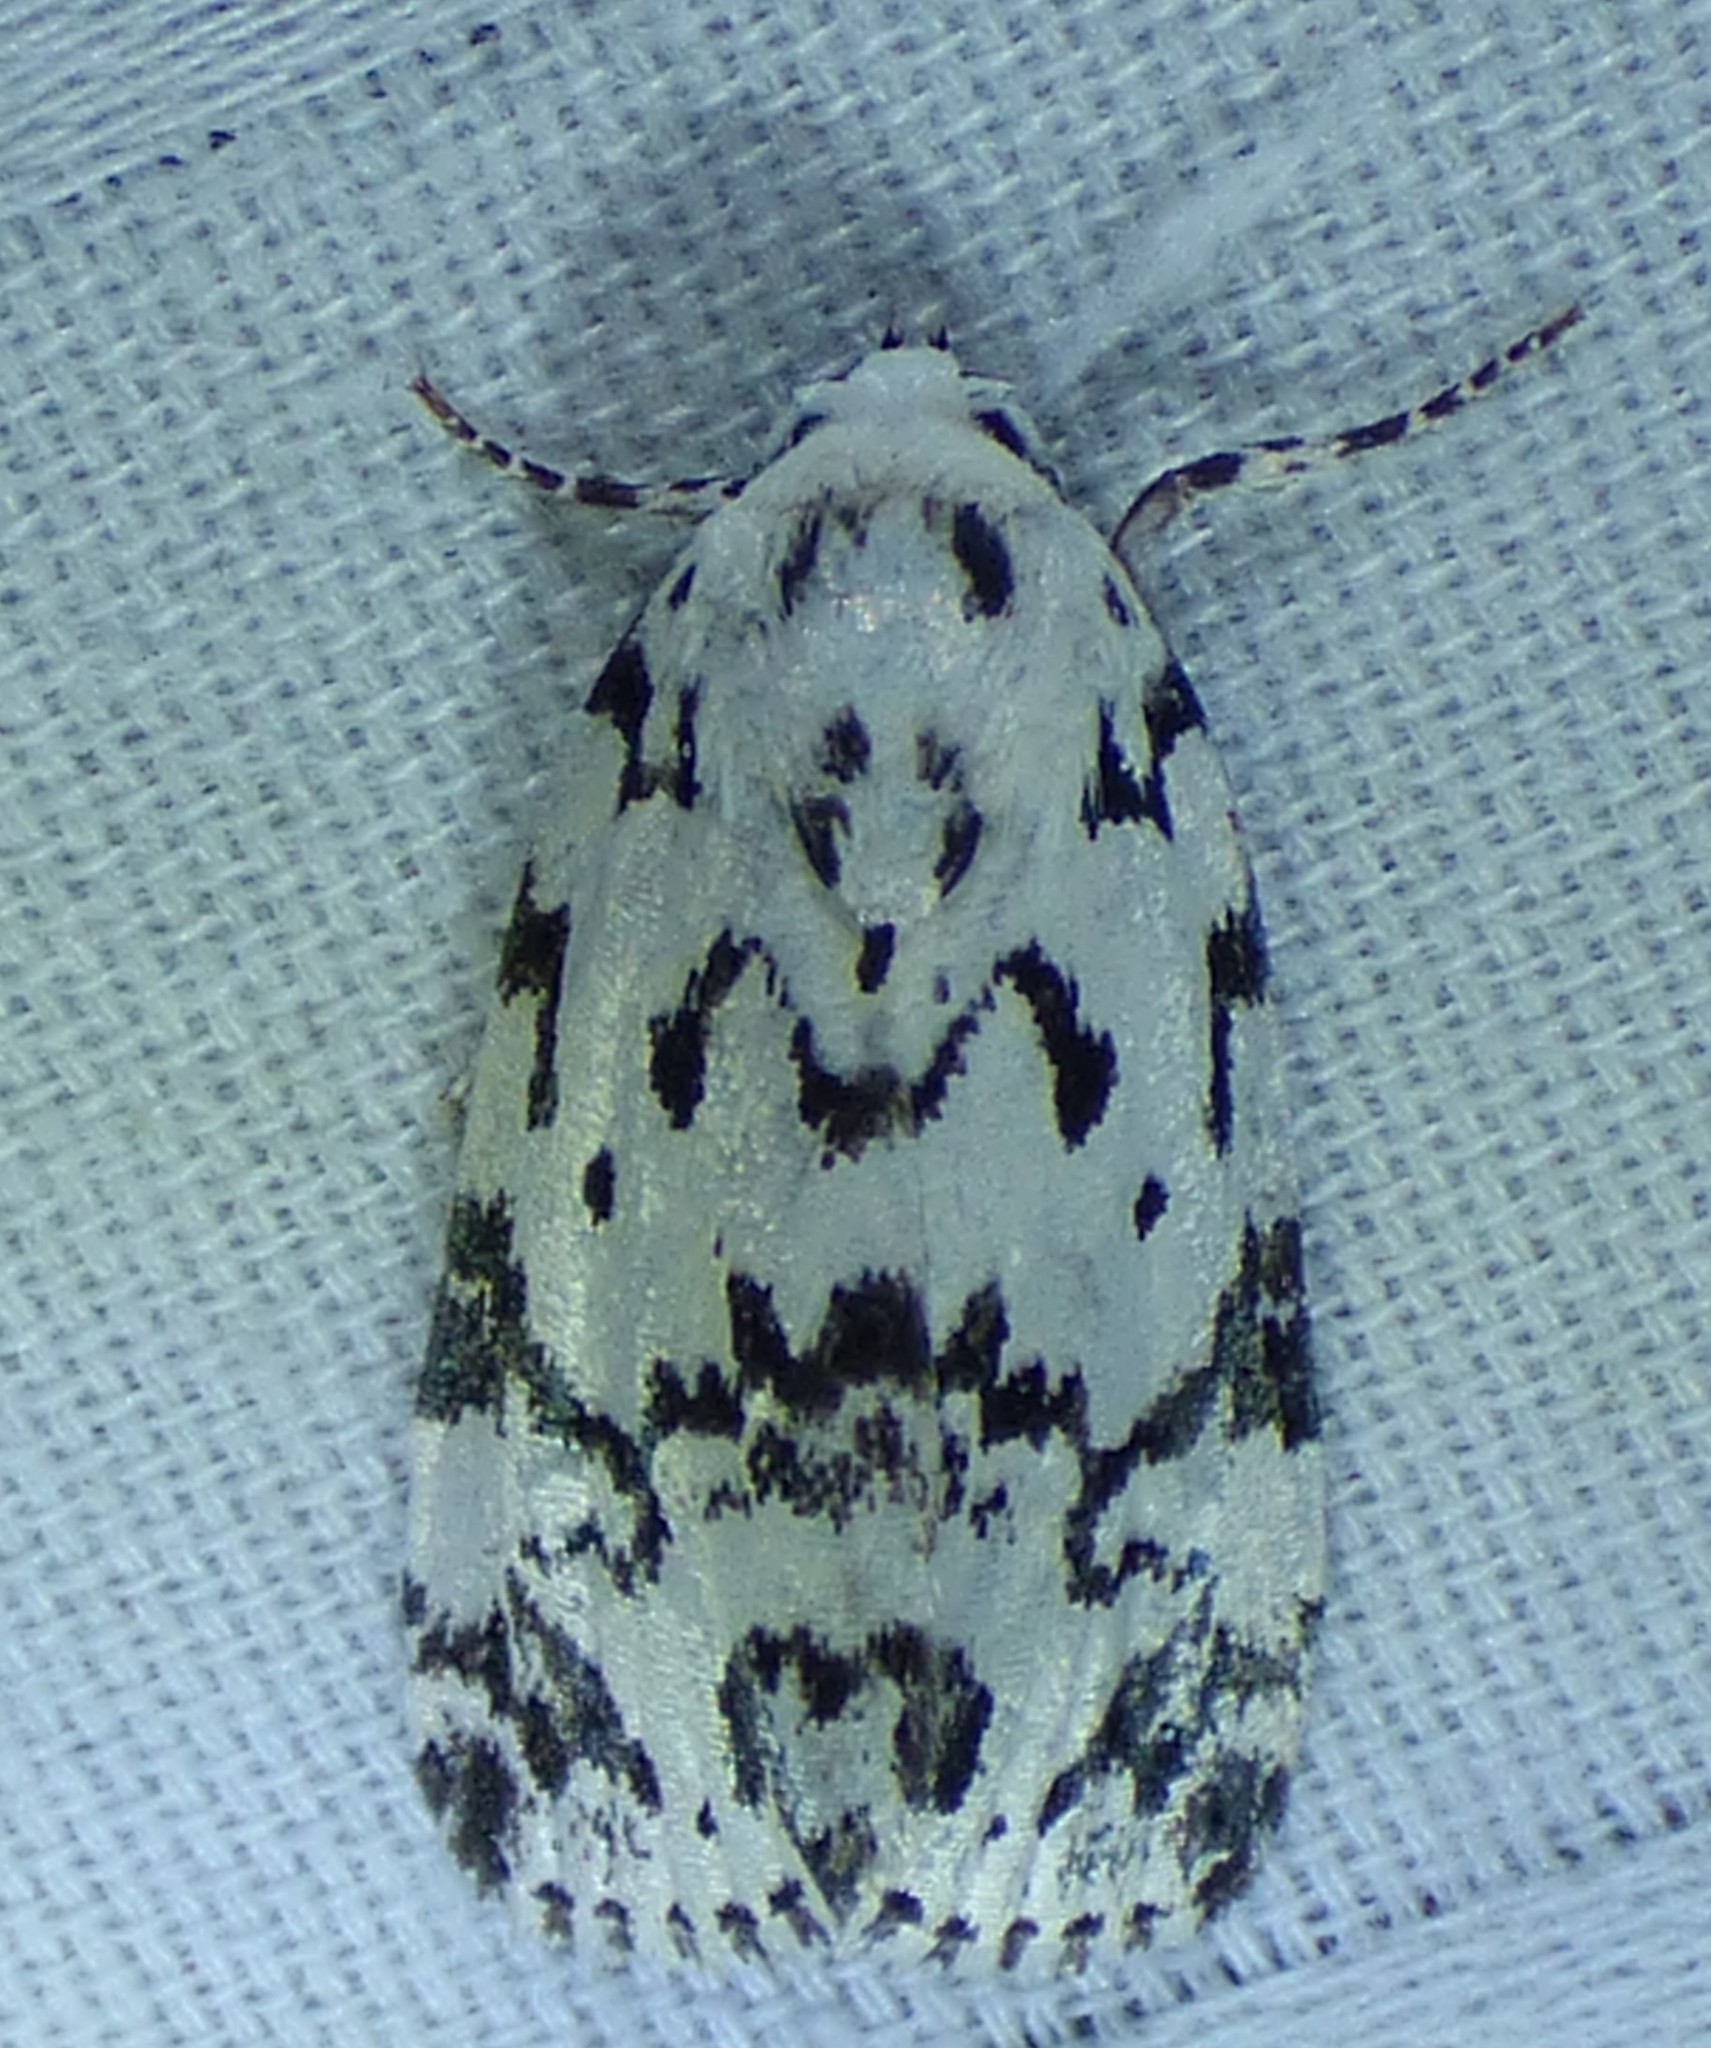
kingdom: Animalia
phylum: Arthropoda
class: Insecta
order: Lepidoptera
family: Noctuidae
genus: Polygrammate
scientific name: Polygrammate hebraeicum
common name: Hebrew moth
